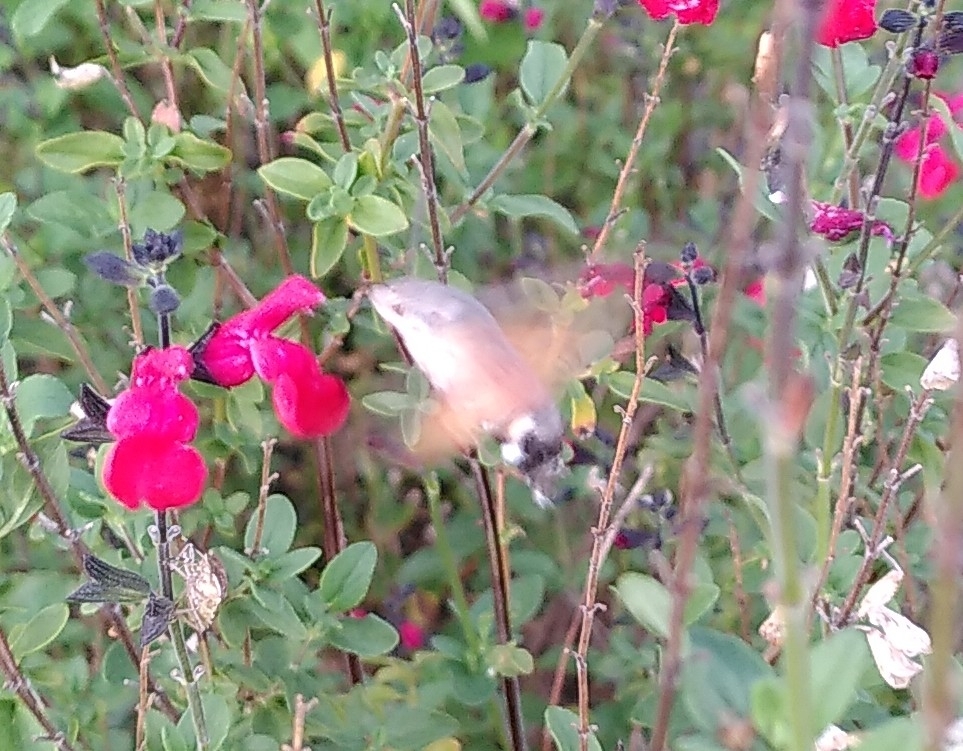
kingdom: Animalia
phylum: Arthropoda
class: Insecta
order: Lepidoptera
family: Sphingidae
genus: Macroglossum
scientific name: Macroglossum stellatarum
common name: Humming-bird hawk-moth
